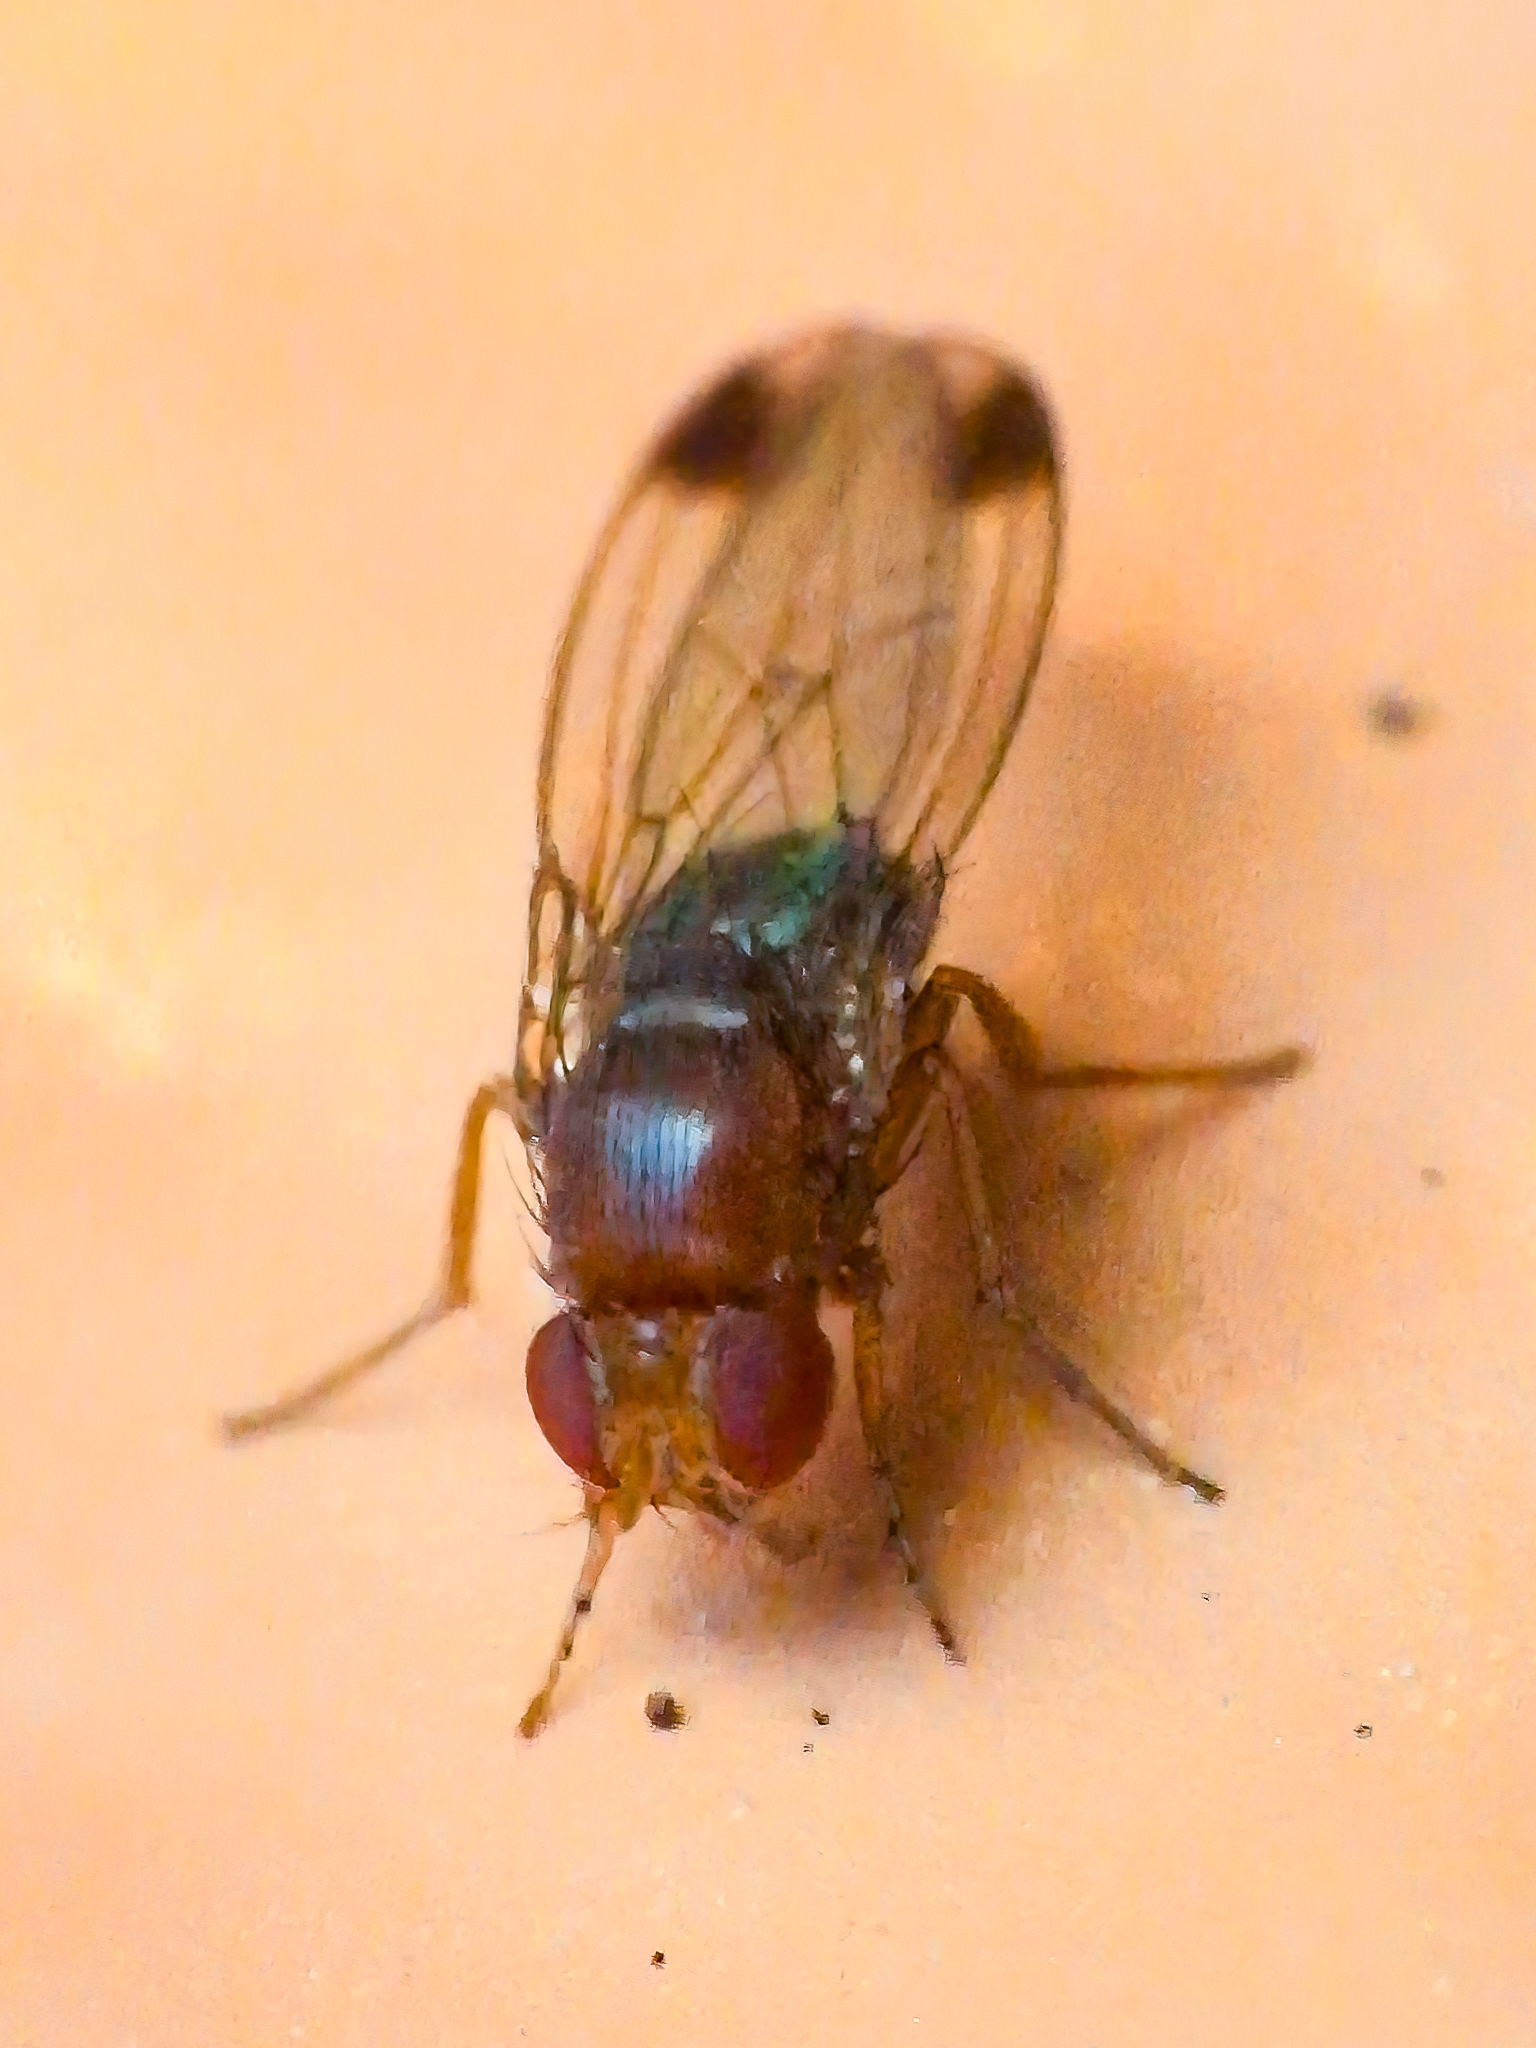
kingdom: Animalia
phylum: Arthropoda
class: Insecta
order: Diptera
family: Drosophilidae
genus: Drosophila
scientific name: Drosophila suzukii
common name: Spotted-wing drosophila
